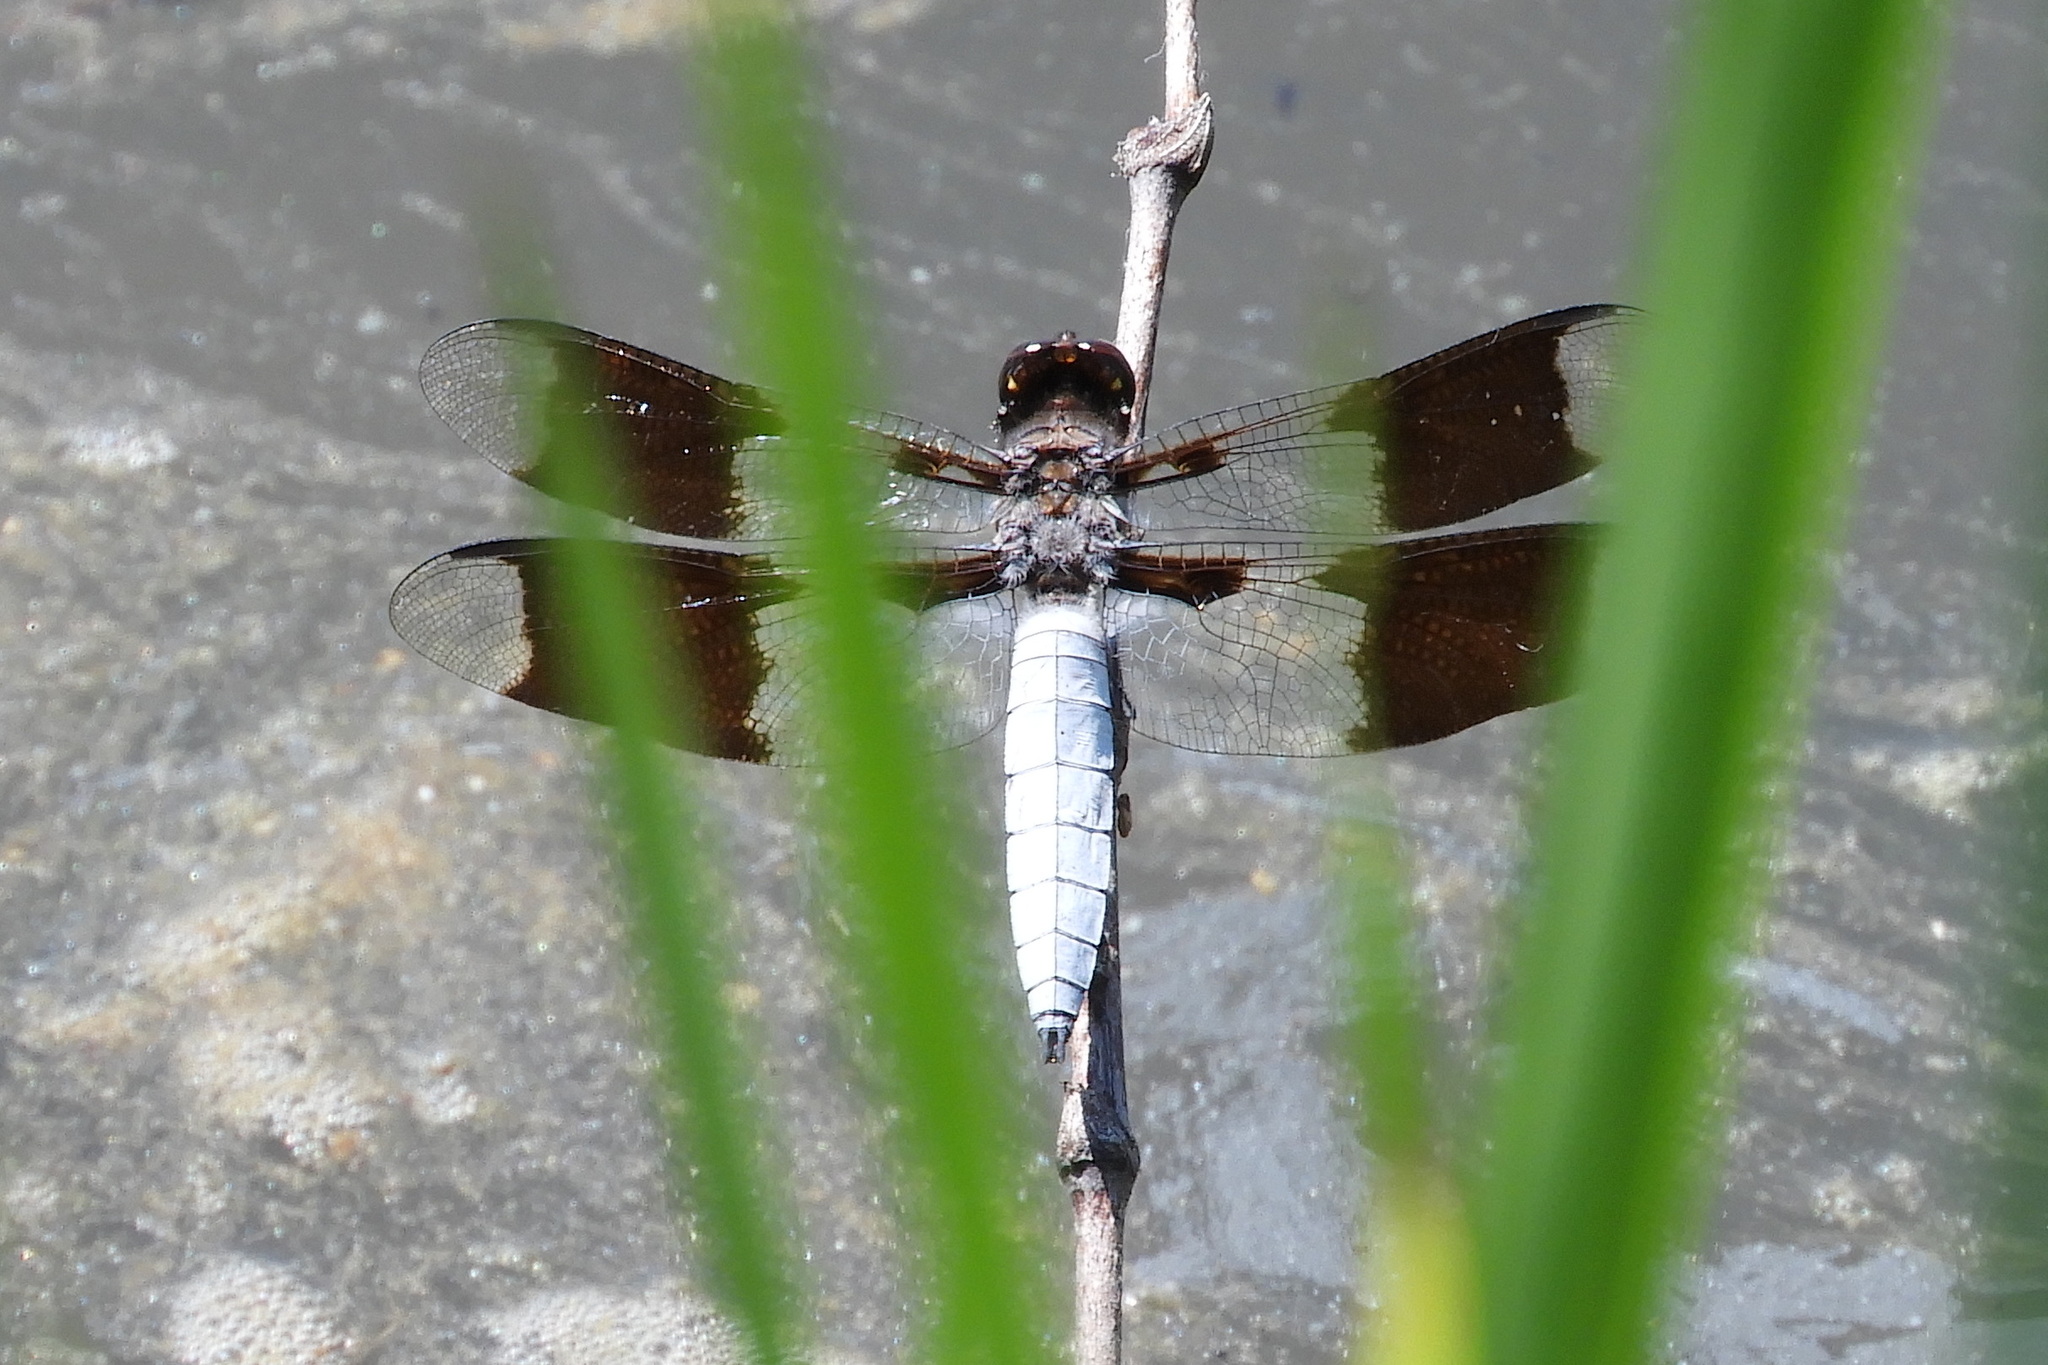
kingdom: Animalia
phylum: Arthropoda
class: Insecta
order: Odonata
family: Libellulidae
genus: Plathemis
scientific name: Plathemis lydia
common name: Common whitetail
